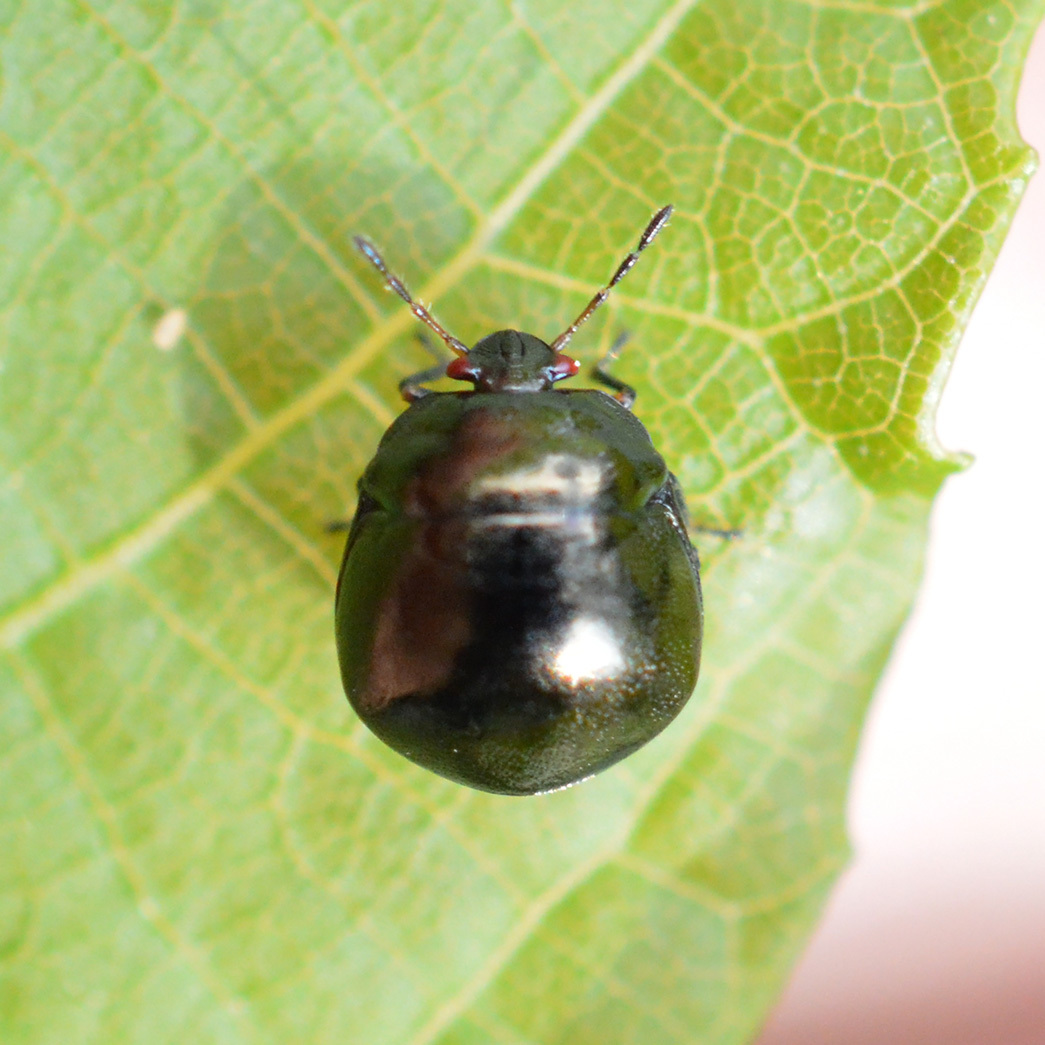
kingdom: Animalia
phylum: Arthropoda
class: Insecta
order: Hemiptera
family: Plataspidae
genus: Coptosoma
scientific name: Coptosoma scutellatum
